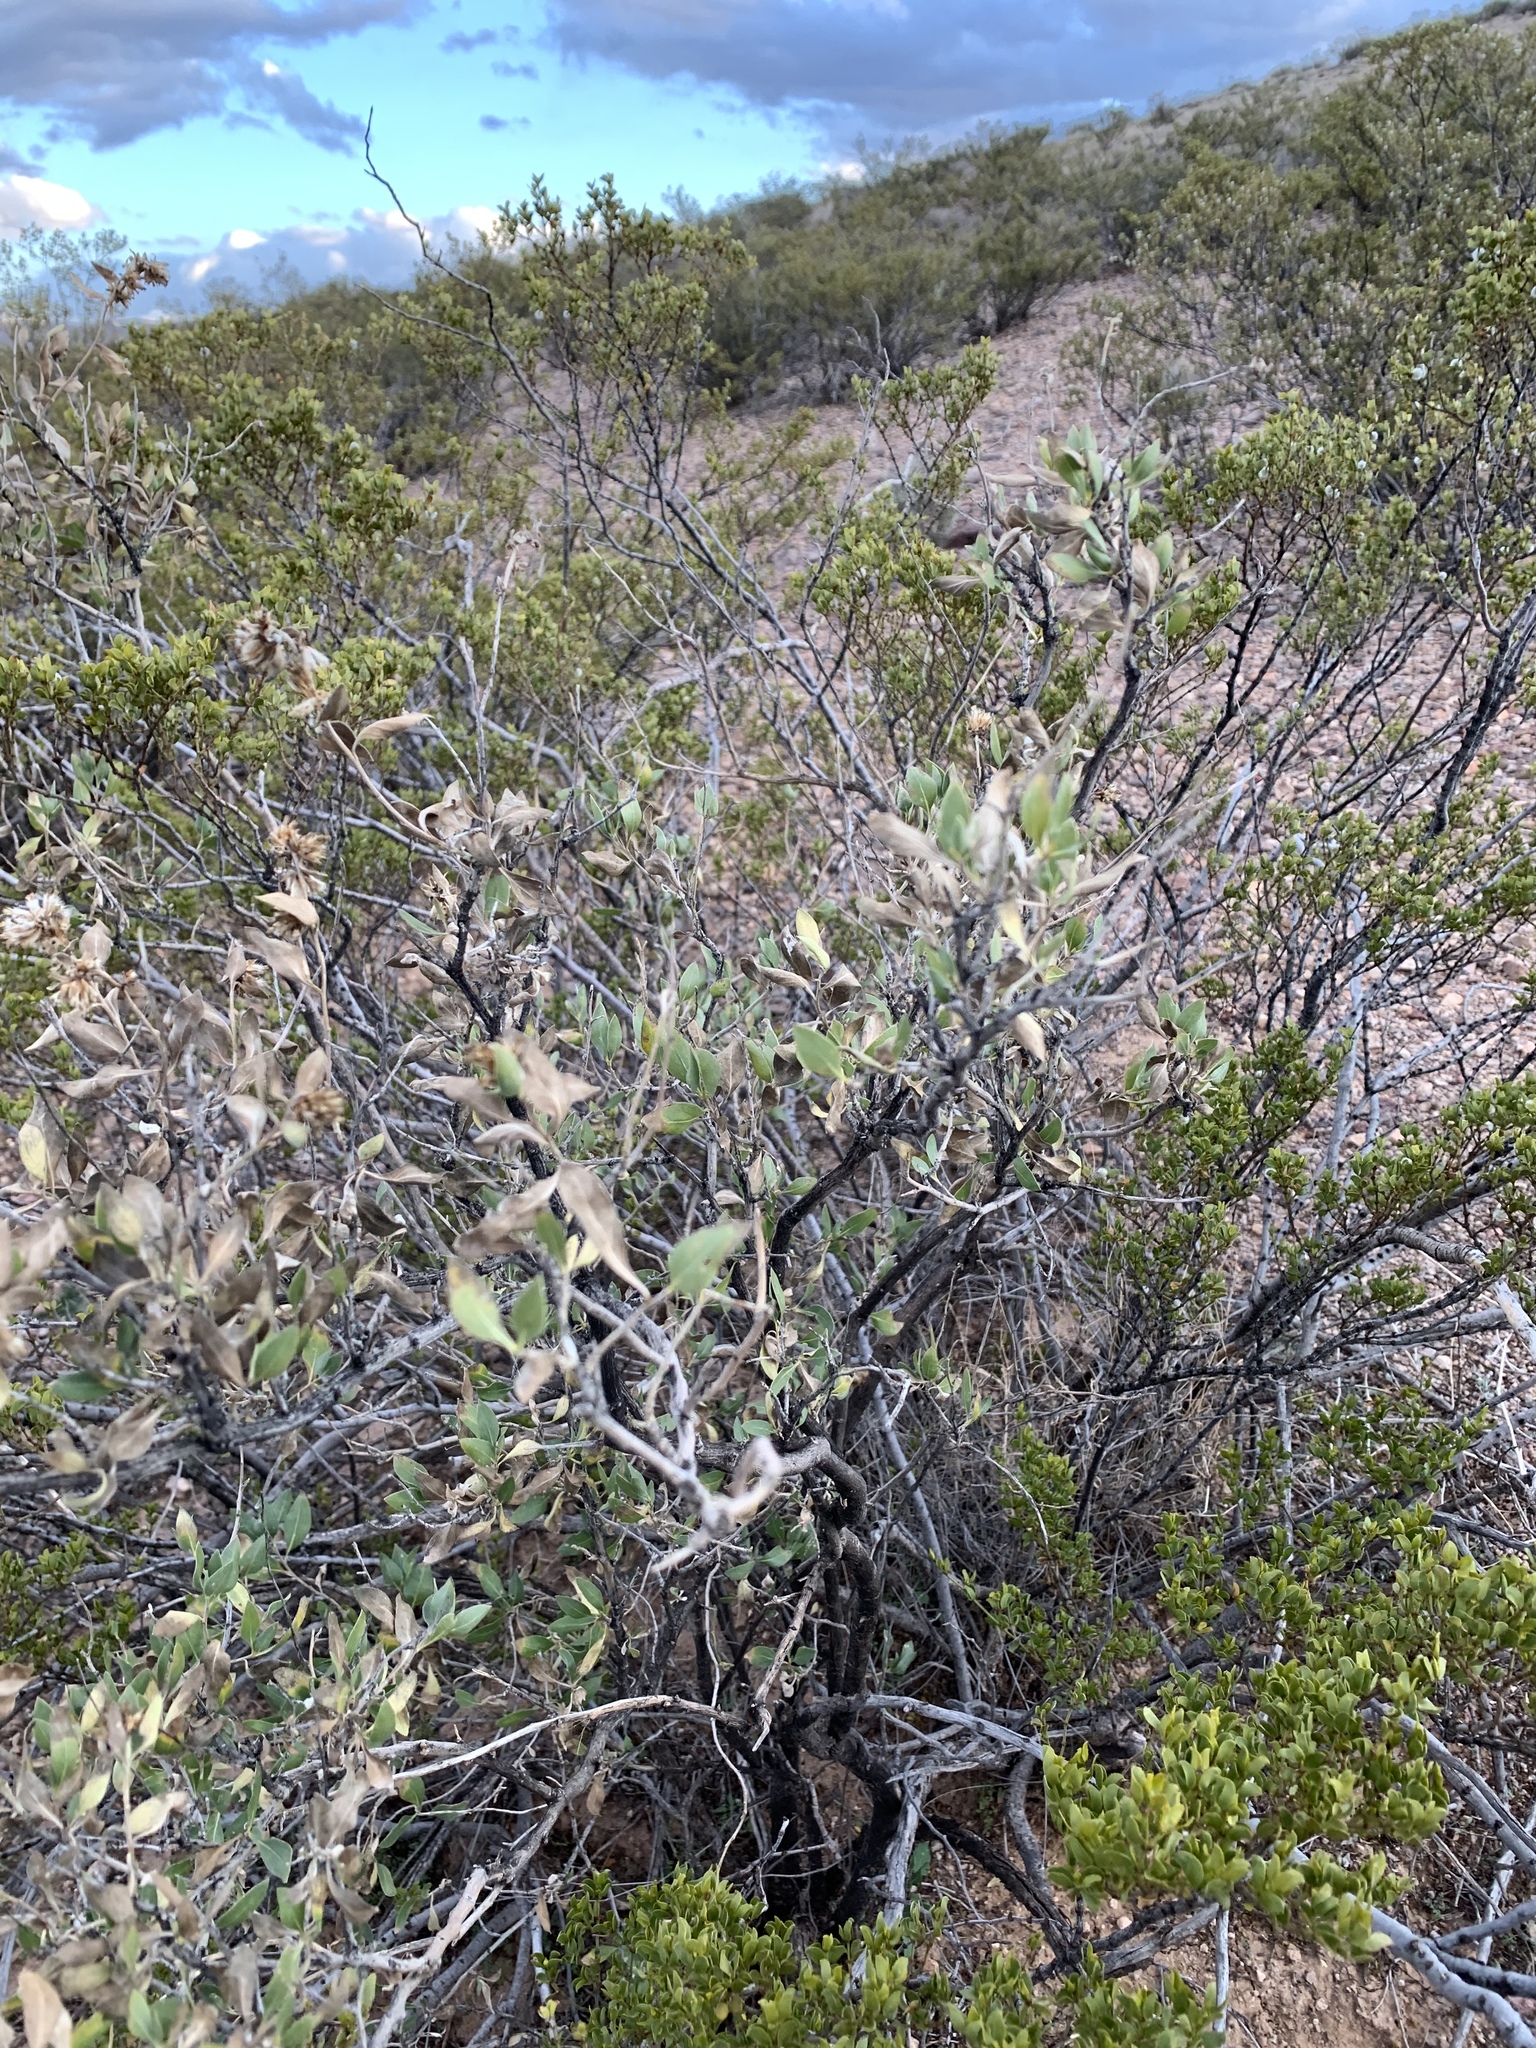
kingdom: Plantae
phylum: Tracheophyta
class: Magnoliopsida
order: Asterales
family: Asteraceae
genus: Flourensia
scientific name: Flourensia cernua
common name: Varnishbush
